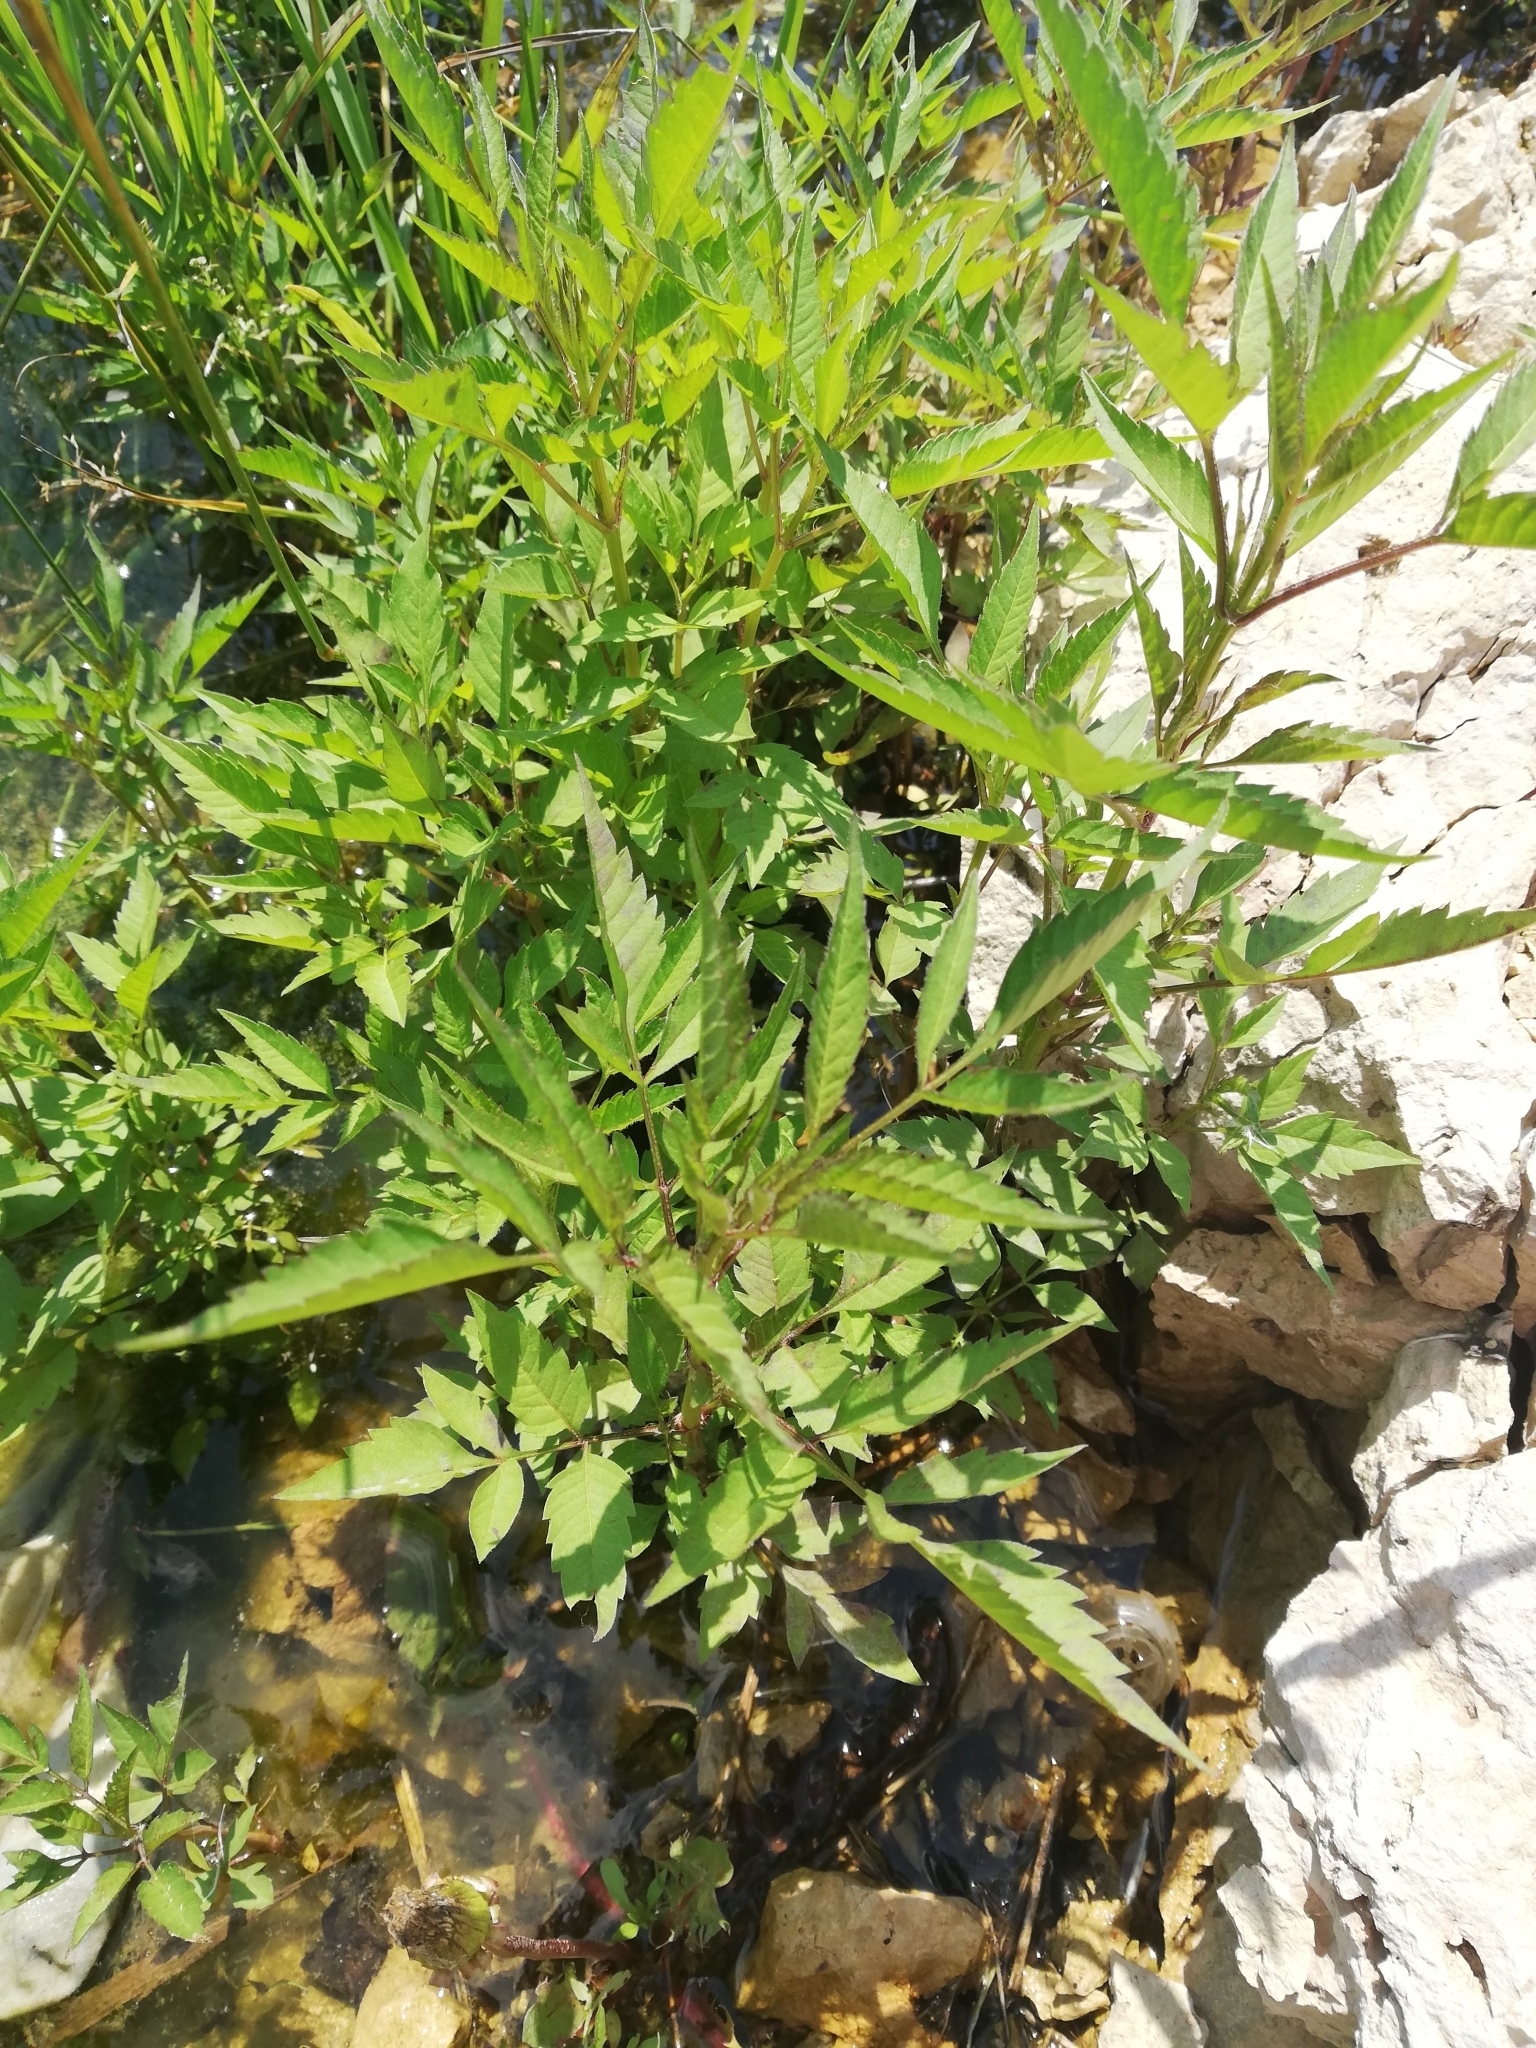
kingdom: Plantae
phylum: Tracheophyta
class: Magnoliopsida
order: Asterales
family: Asteraceae
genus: Bidens
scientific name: Bidens frondosa
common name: Beggarticks
